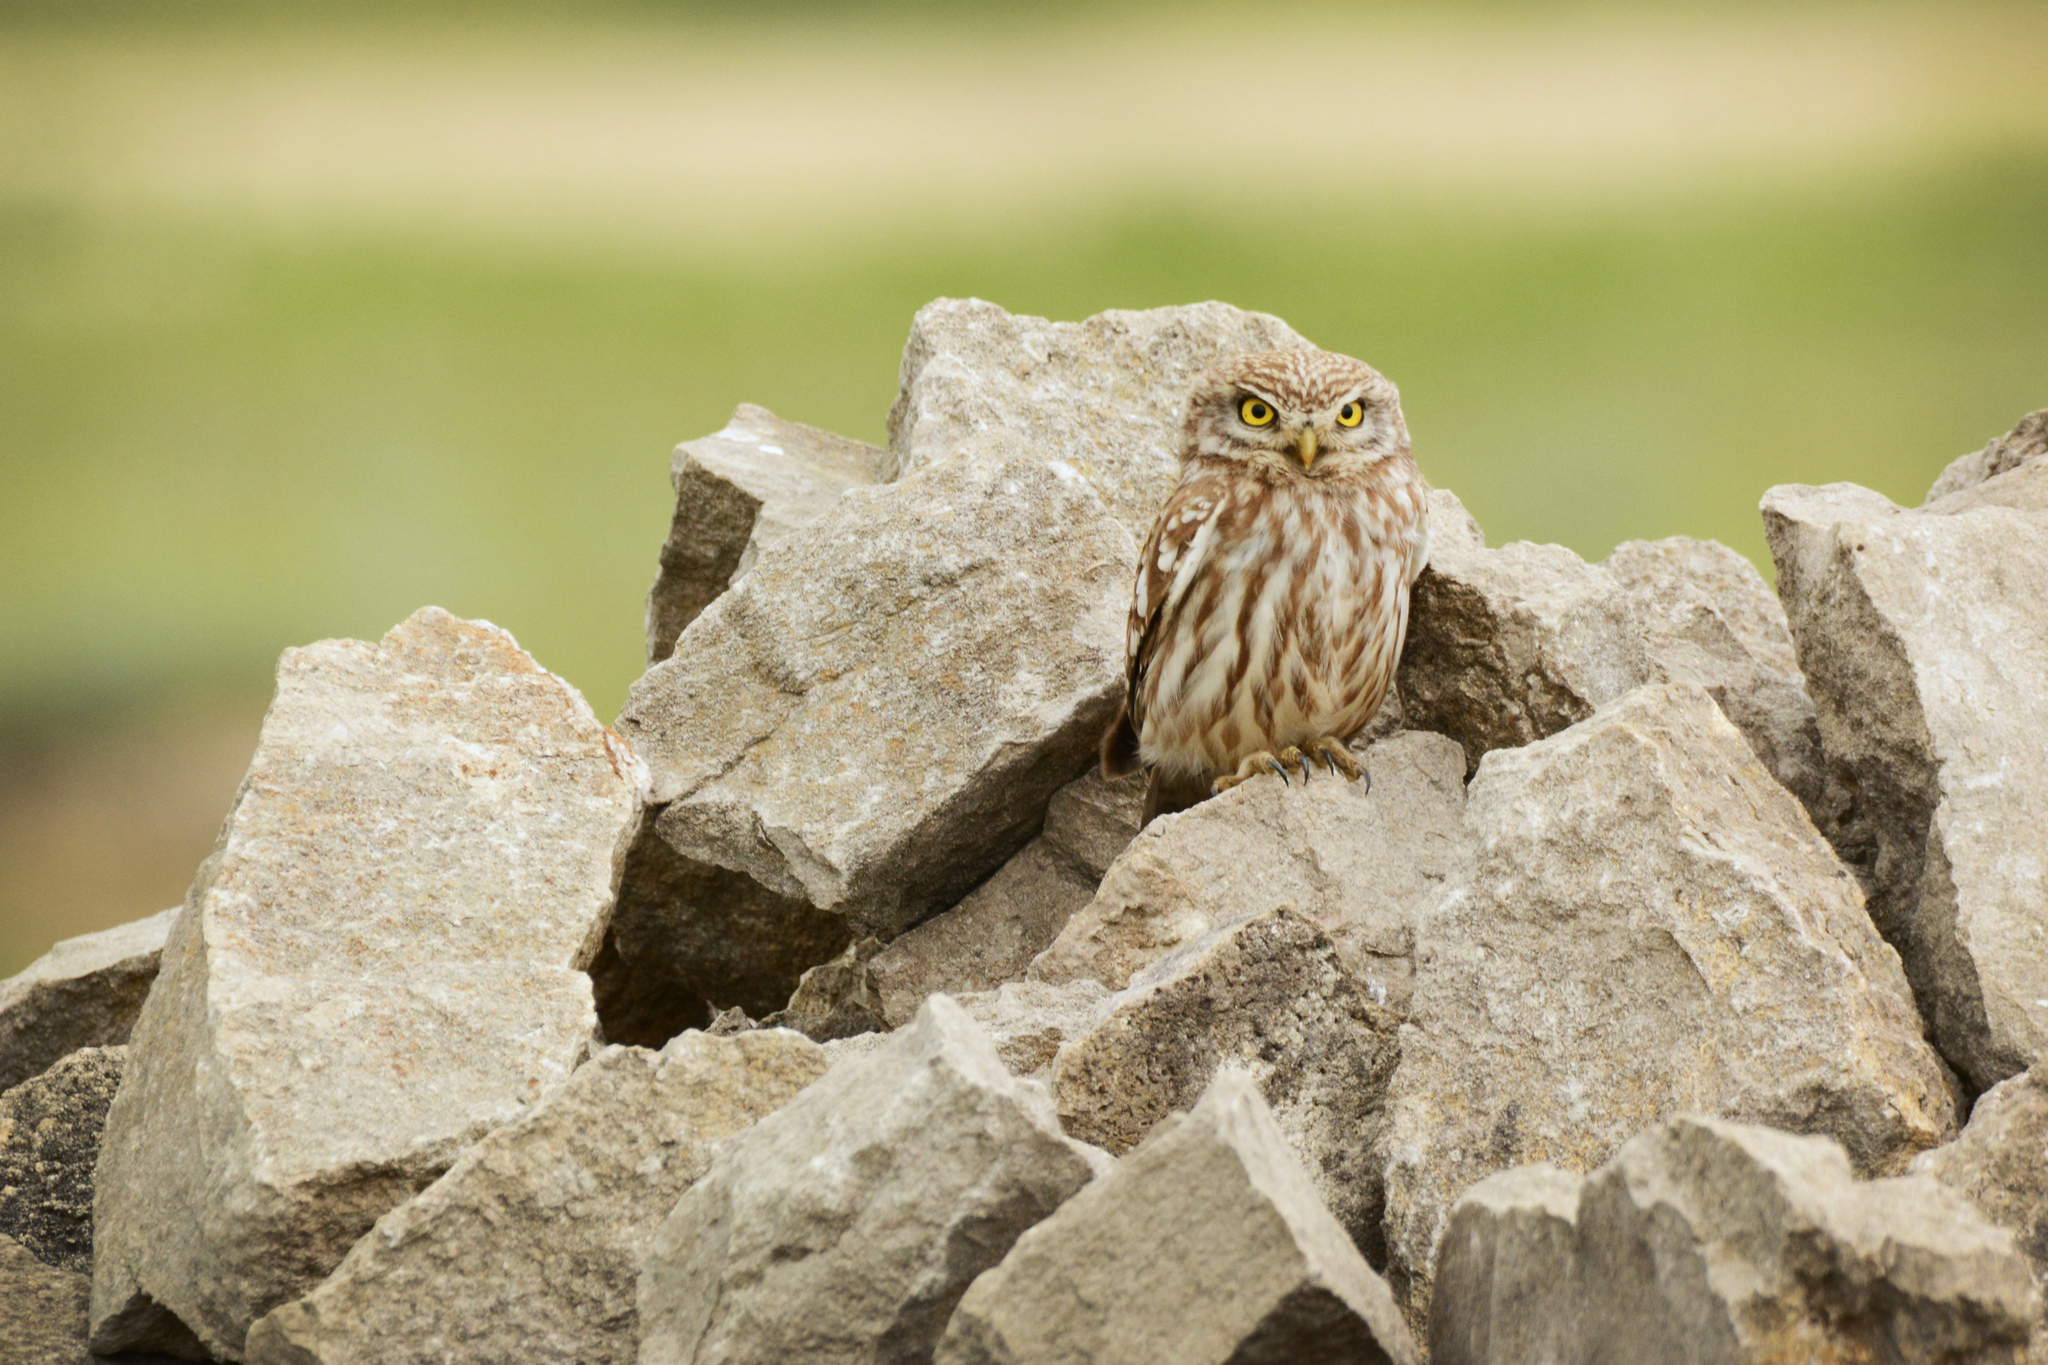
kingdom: Animalia
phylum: Chordata
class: Aves
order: Strigiformes
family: Strigidae
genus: Athene
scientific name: Athene noctua
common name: Little owl
